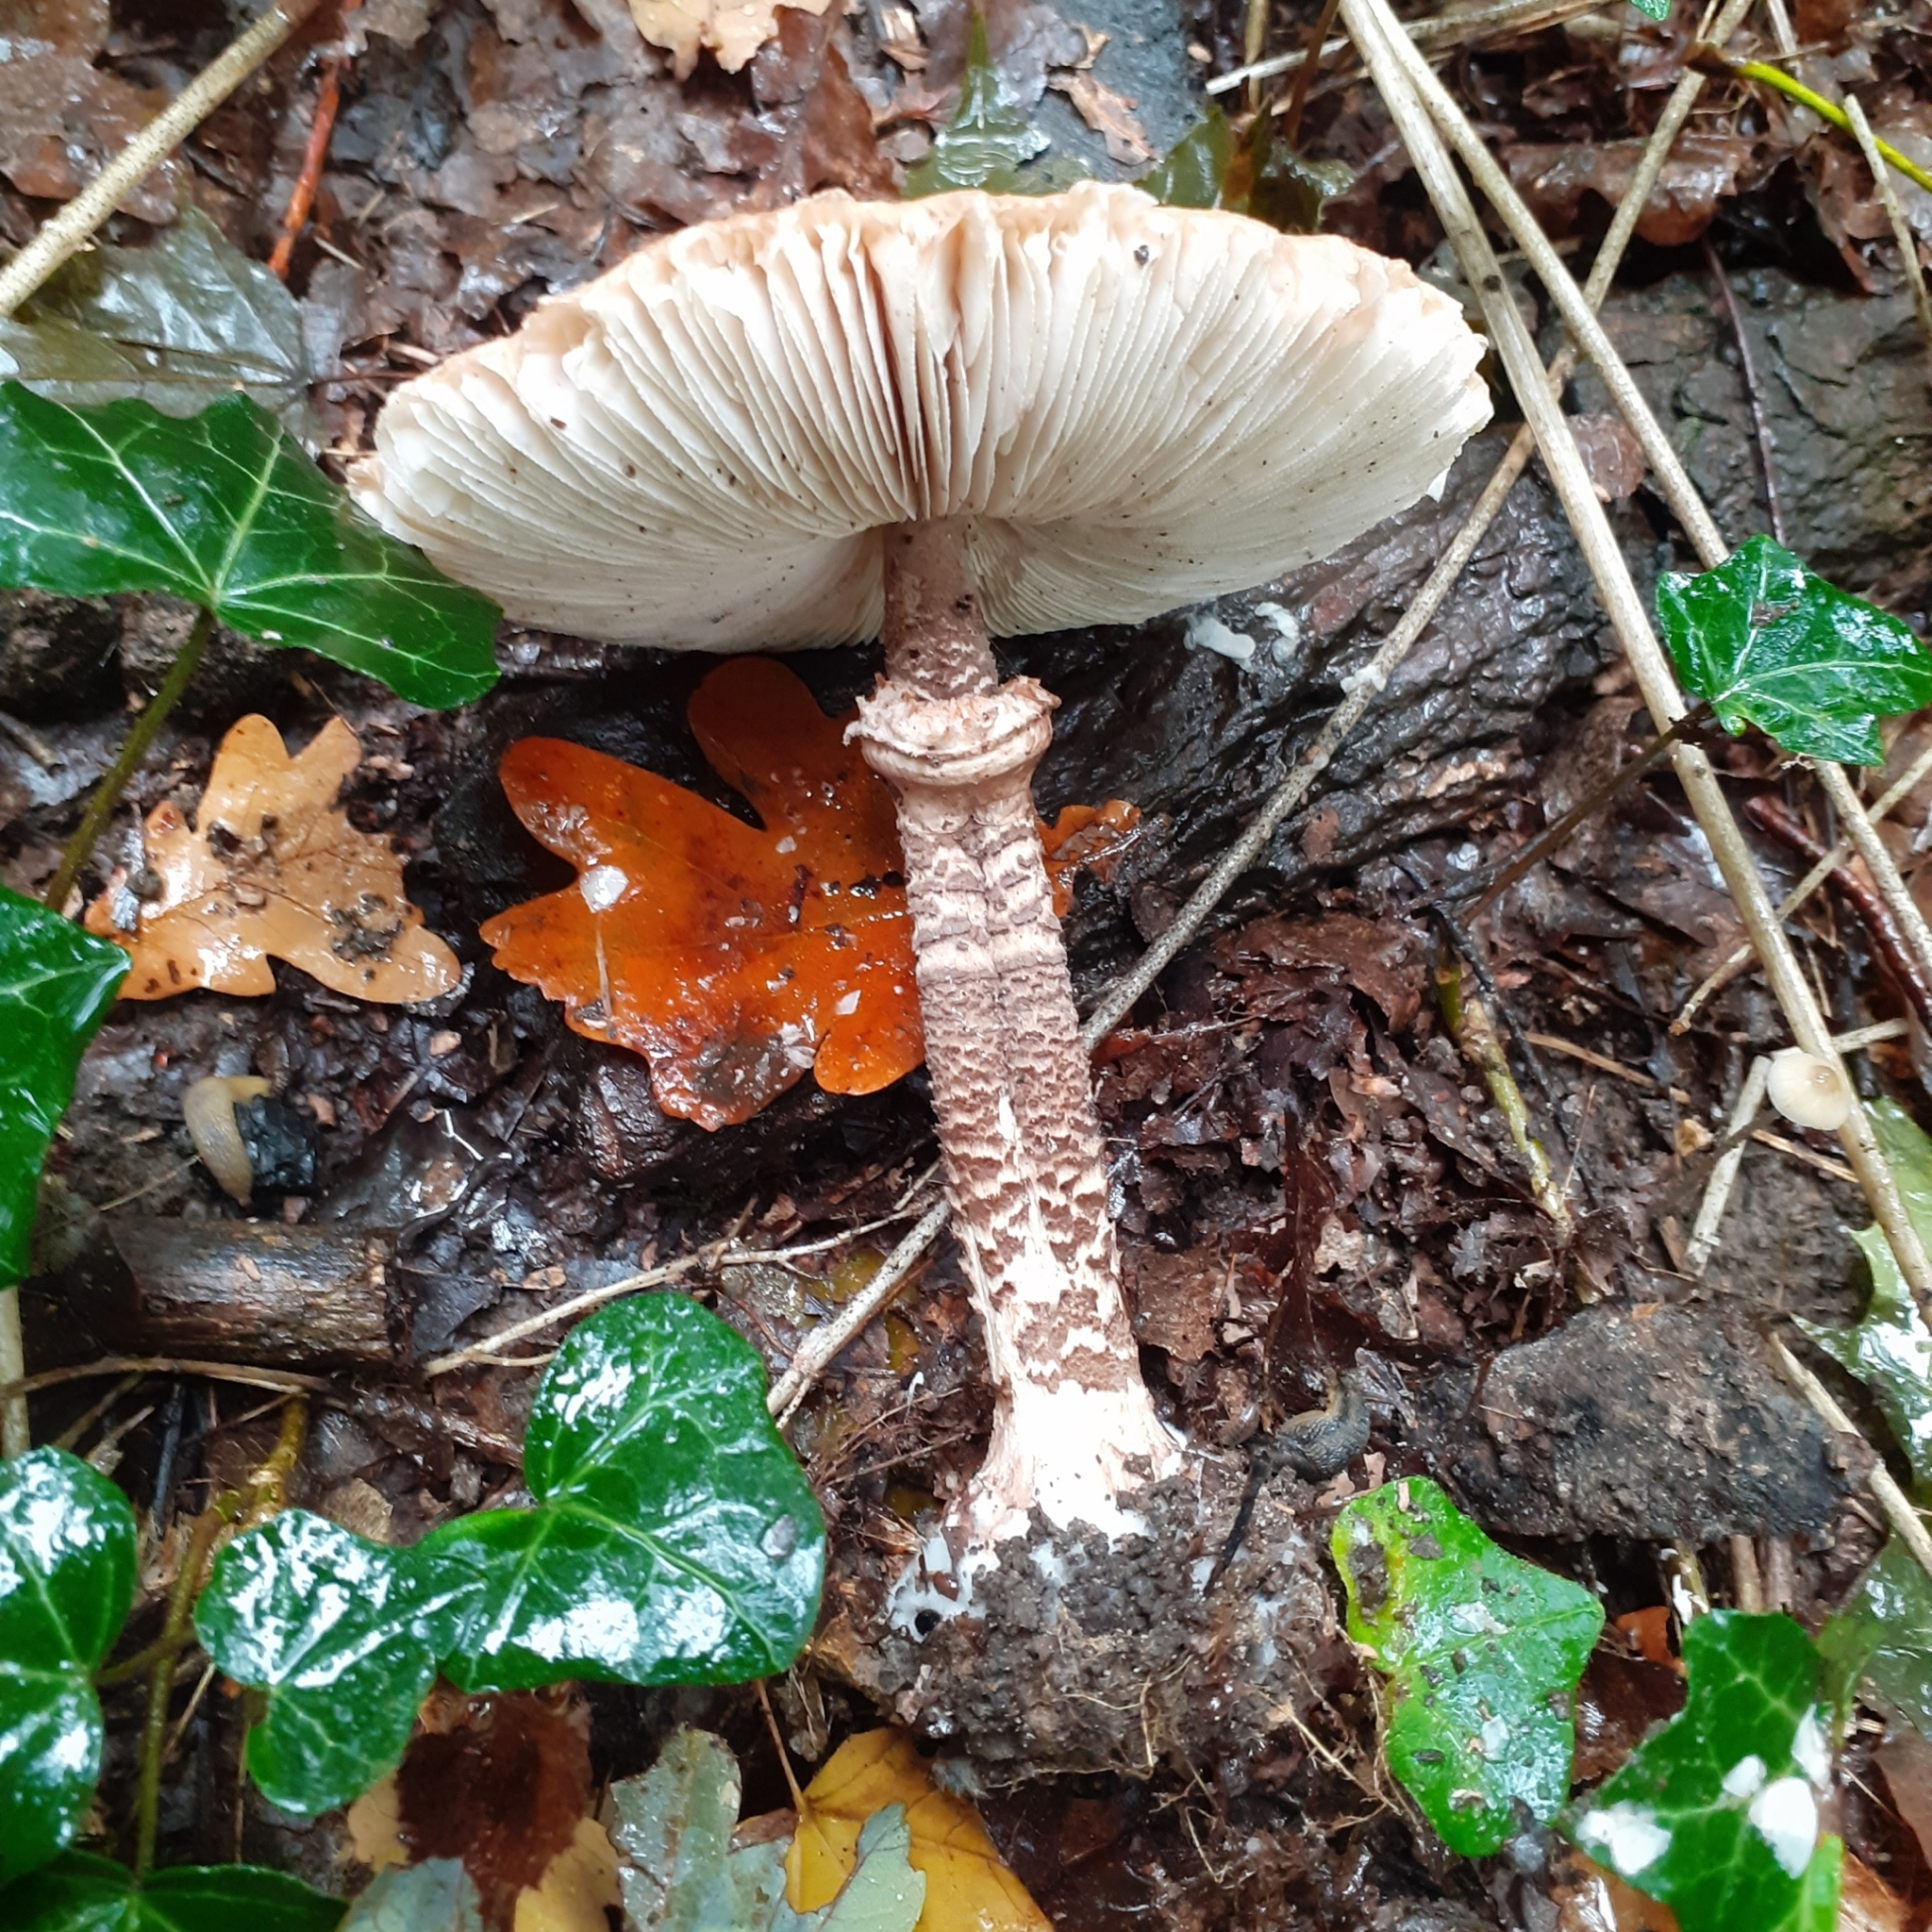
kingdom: Fungi
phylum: Basidiomycota
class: Agaricomycetes
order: Agaricales
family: Agaricaceae
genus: Macrolepiota
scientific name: Macrolepiota procera
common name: Parasol
